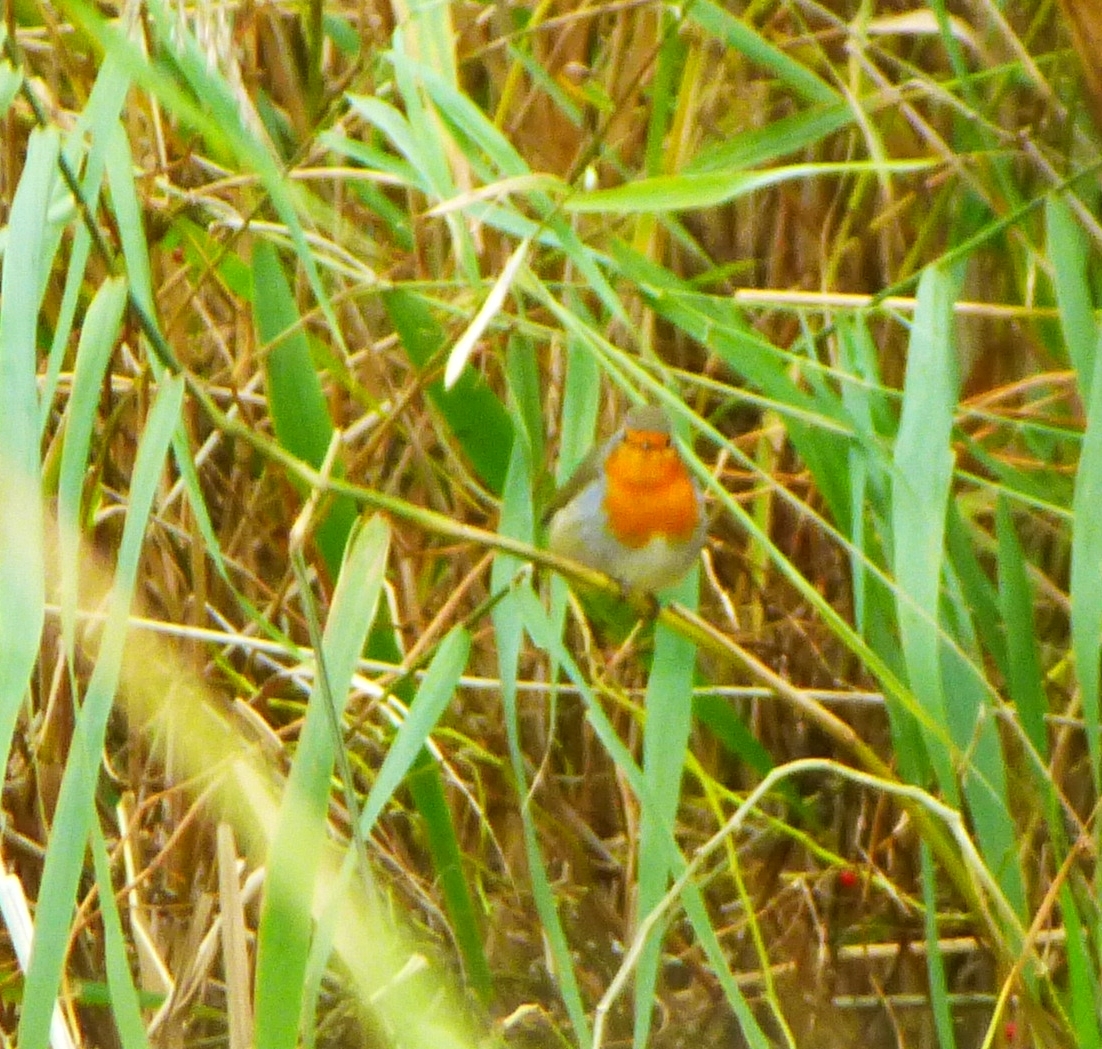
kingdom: Animalia
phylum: Chordata
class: Aves
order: Passeriformes
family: Muscicapidae
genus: Erithacus
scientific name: Erithacus rubecula
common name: European robin
